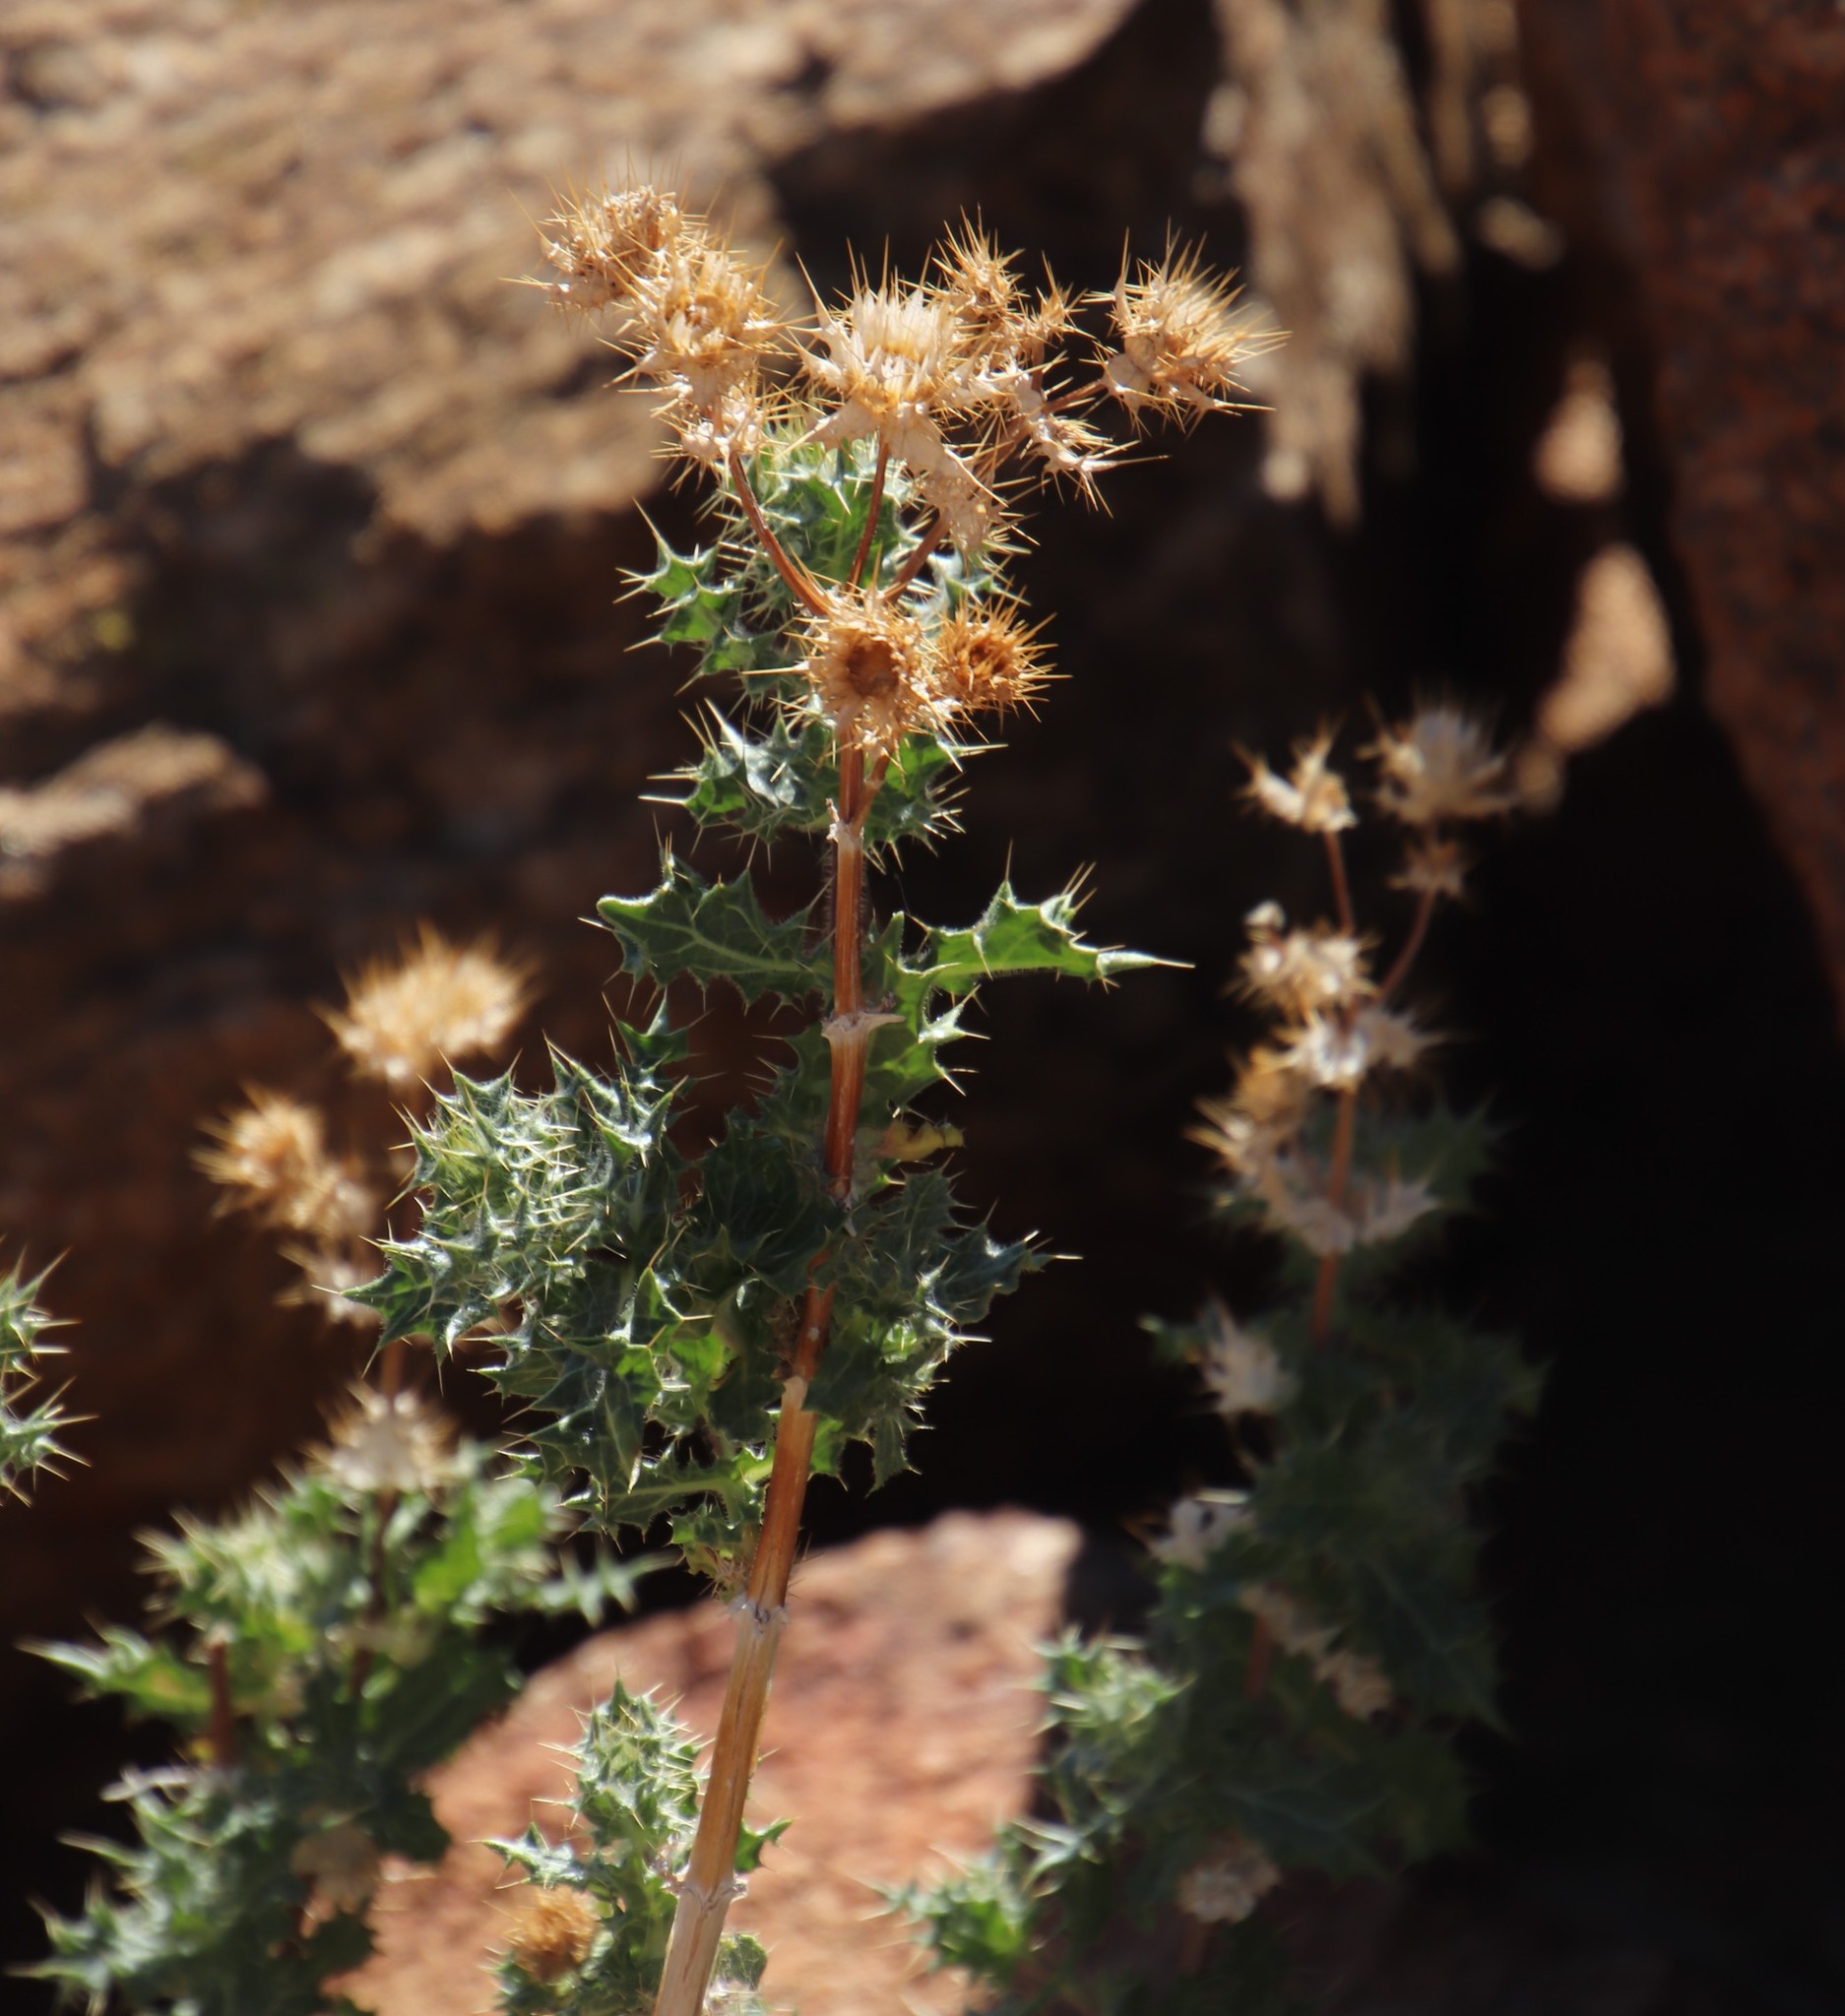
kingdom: Plantae
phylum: Tracheophyta
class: Magnoliopsida
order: Asterales
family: Asteraceae
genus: Berkheya
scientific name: Berkheya spinosissima
